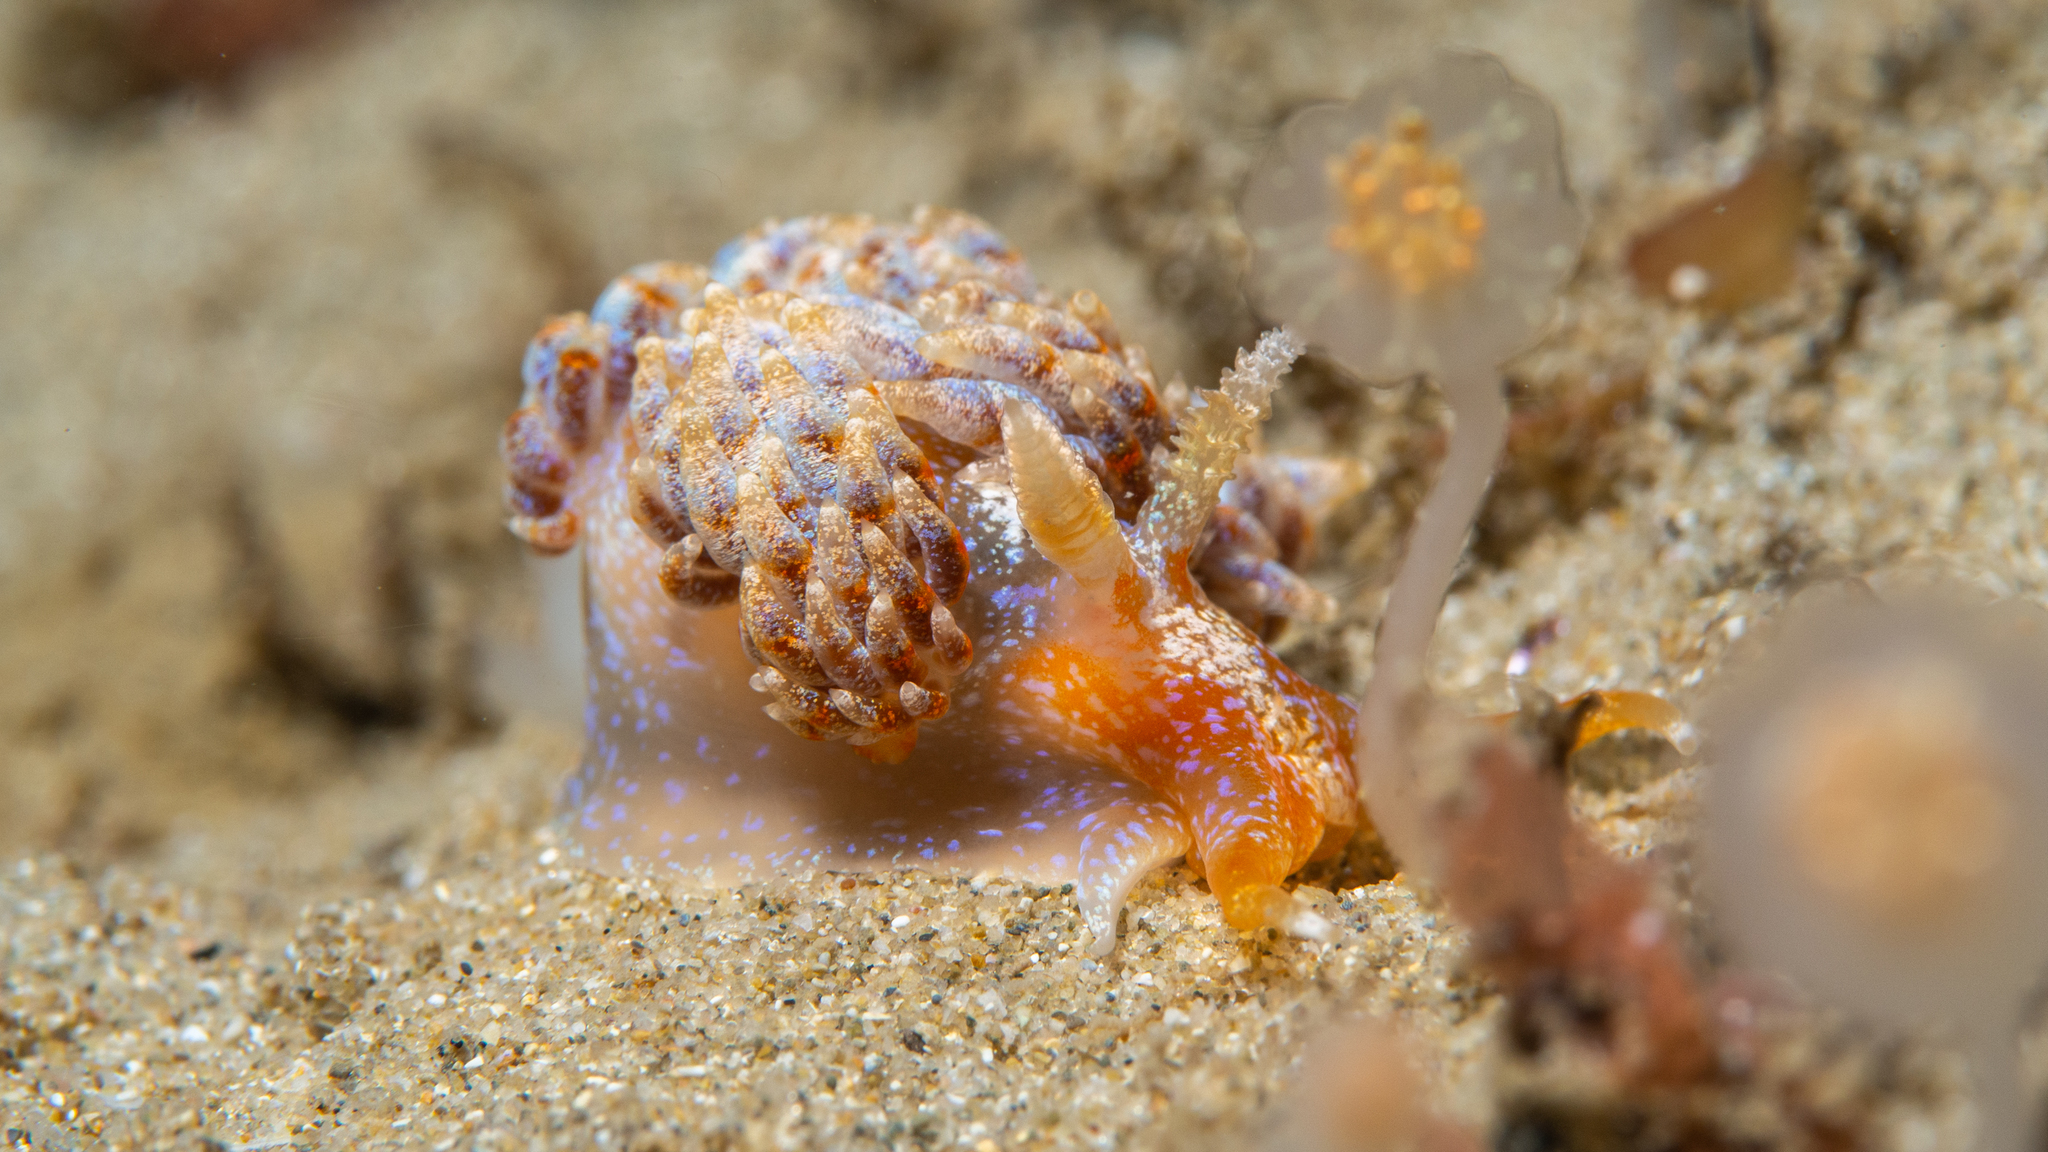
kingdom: Animalia
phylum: Mollusca
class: Gastropoda
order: Nudibranchia
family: Facelinidae
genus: Austraeolis
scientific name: Austraeolis ornata
